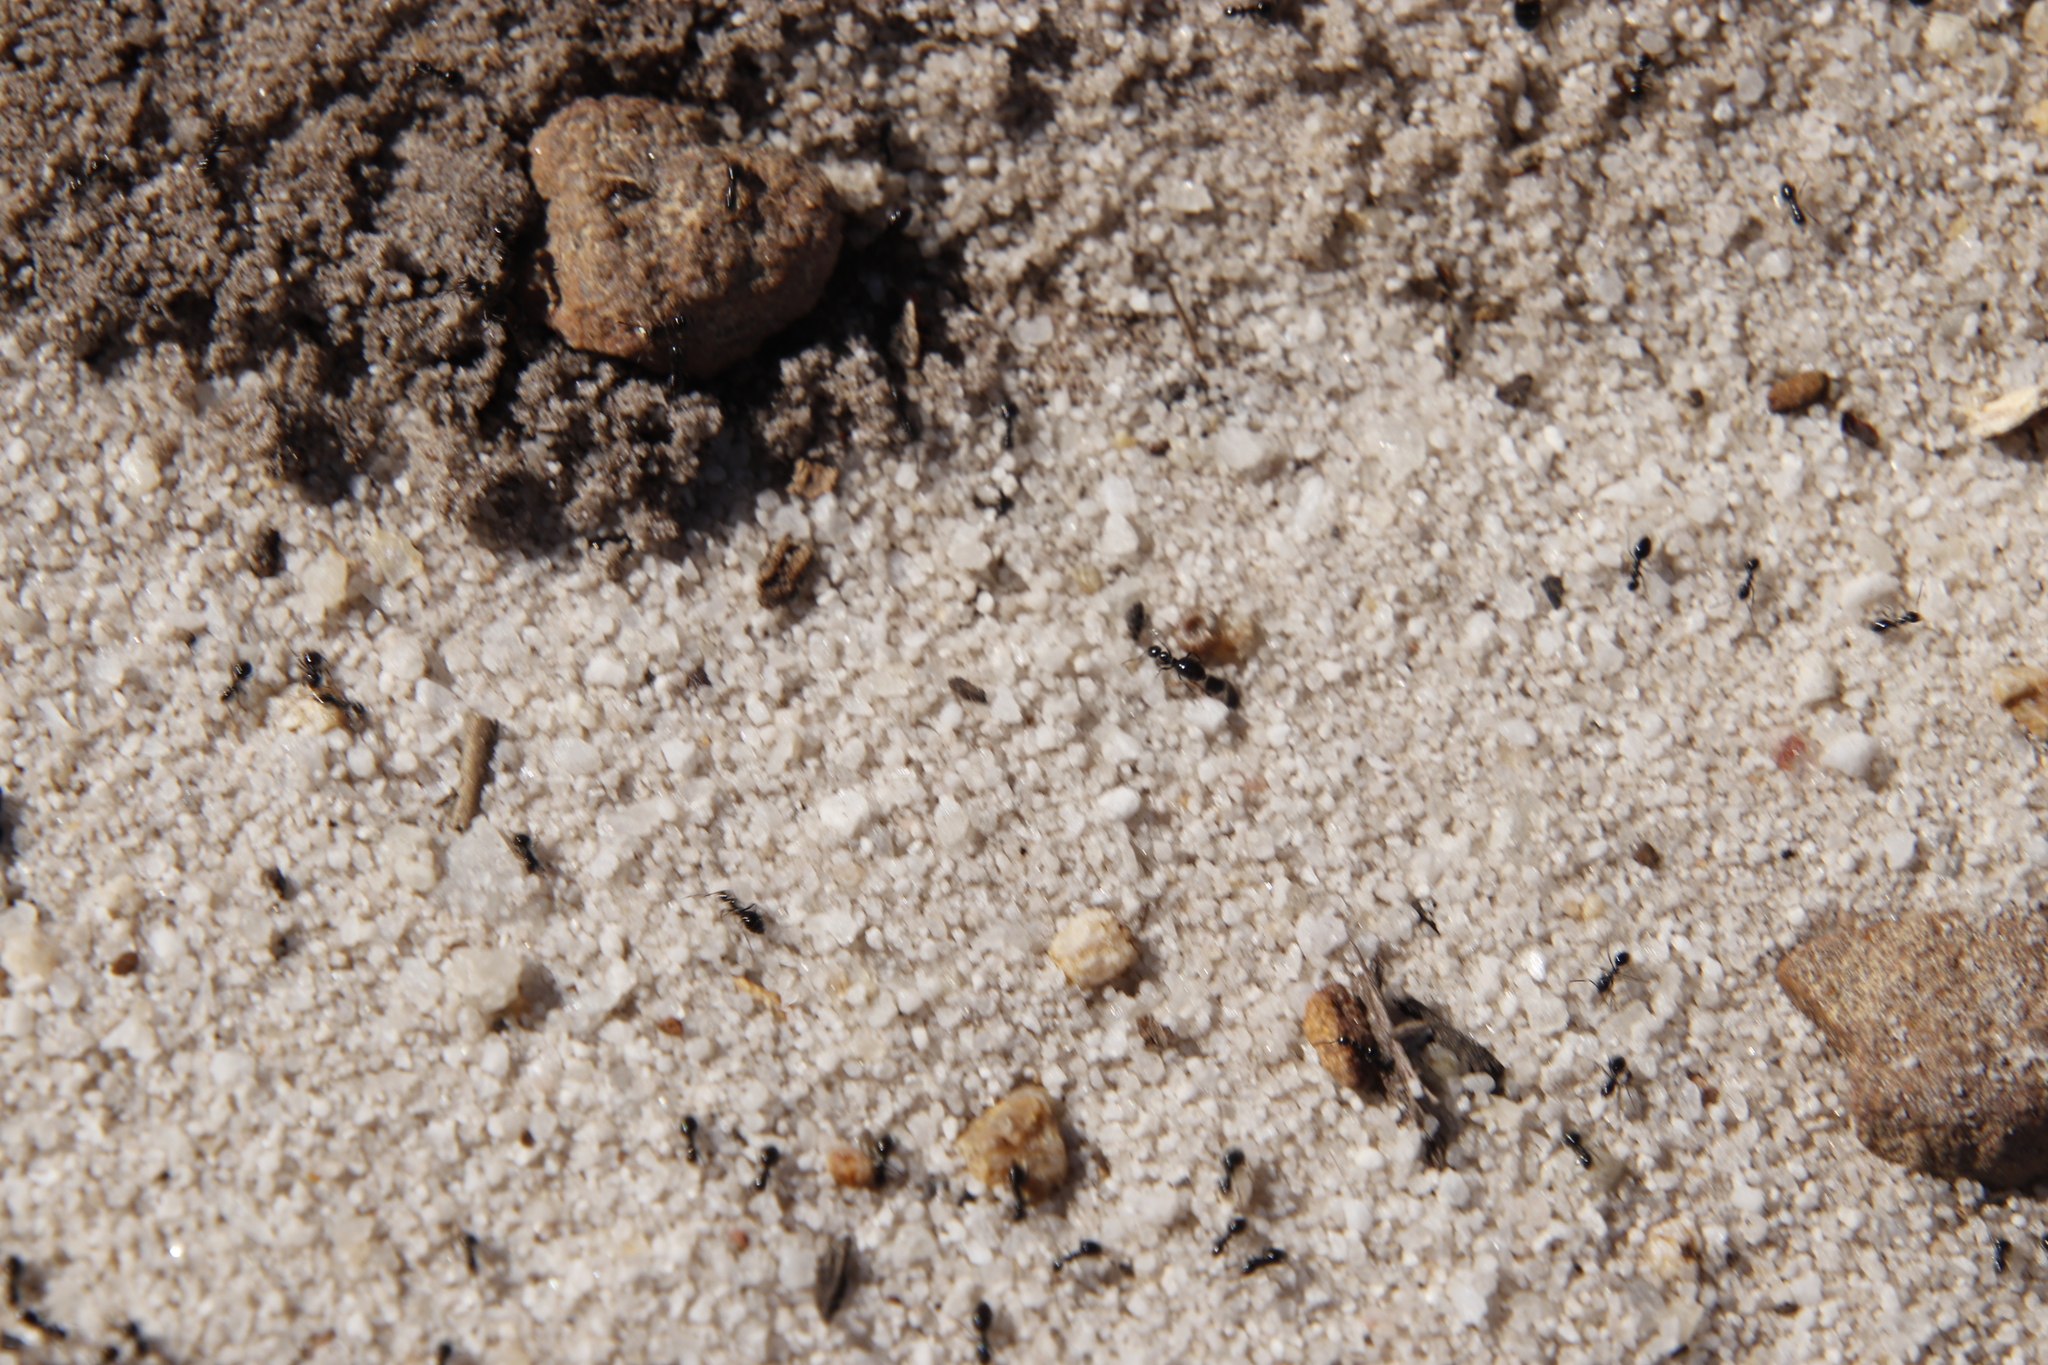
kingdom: Animalia
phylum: Arthropoda
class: Insecta
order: Hymenoptera
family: Formicidae
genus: Lepisiota
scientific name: Lepisiota capensis
